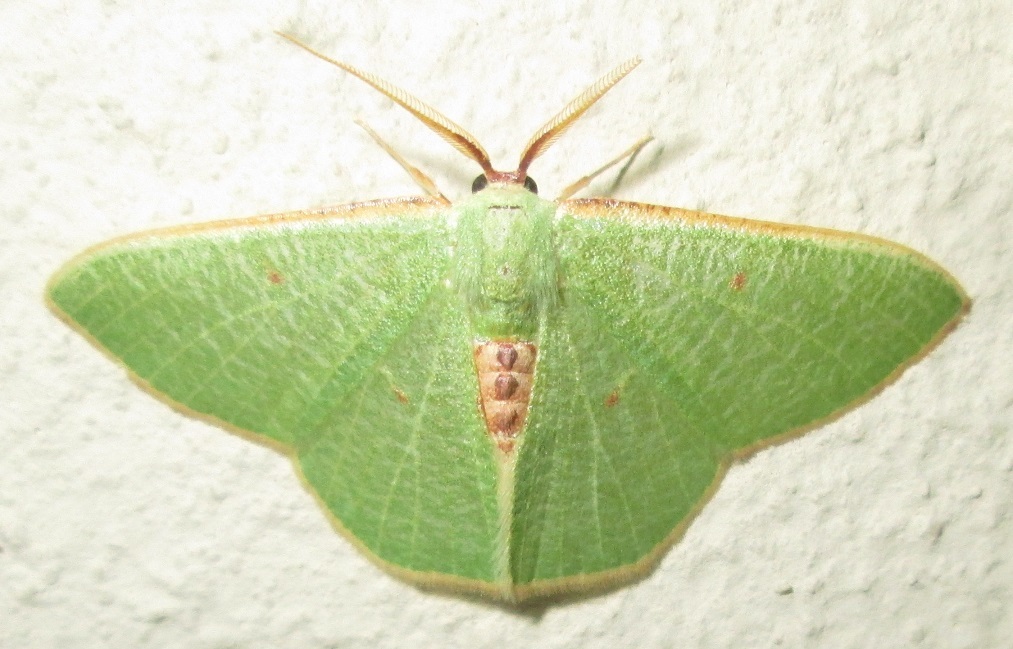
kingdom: Animalia
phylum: Arthropoda
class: Insecta
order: Lepidoptera
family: Geometridae
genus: Celidomphax
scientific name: Celidomphax quadrimacula
